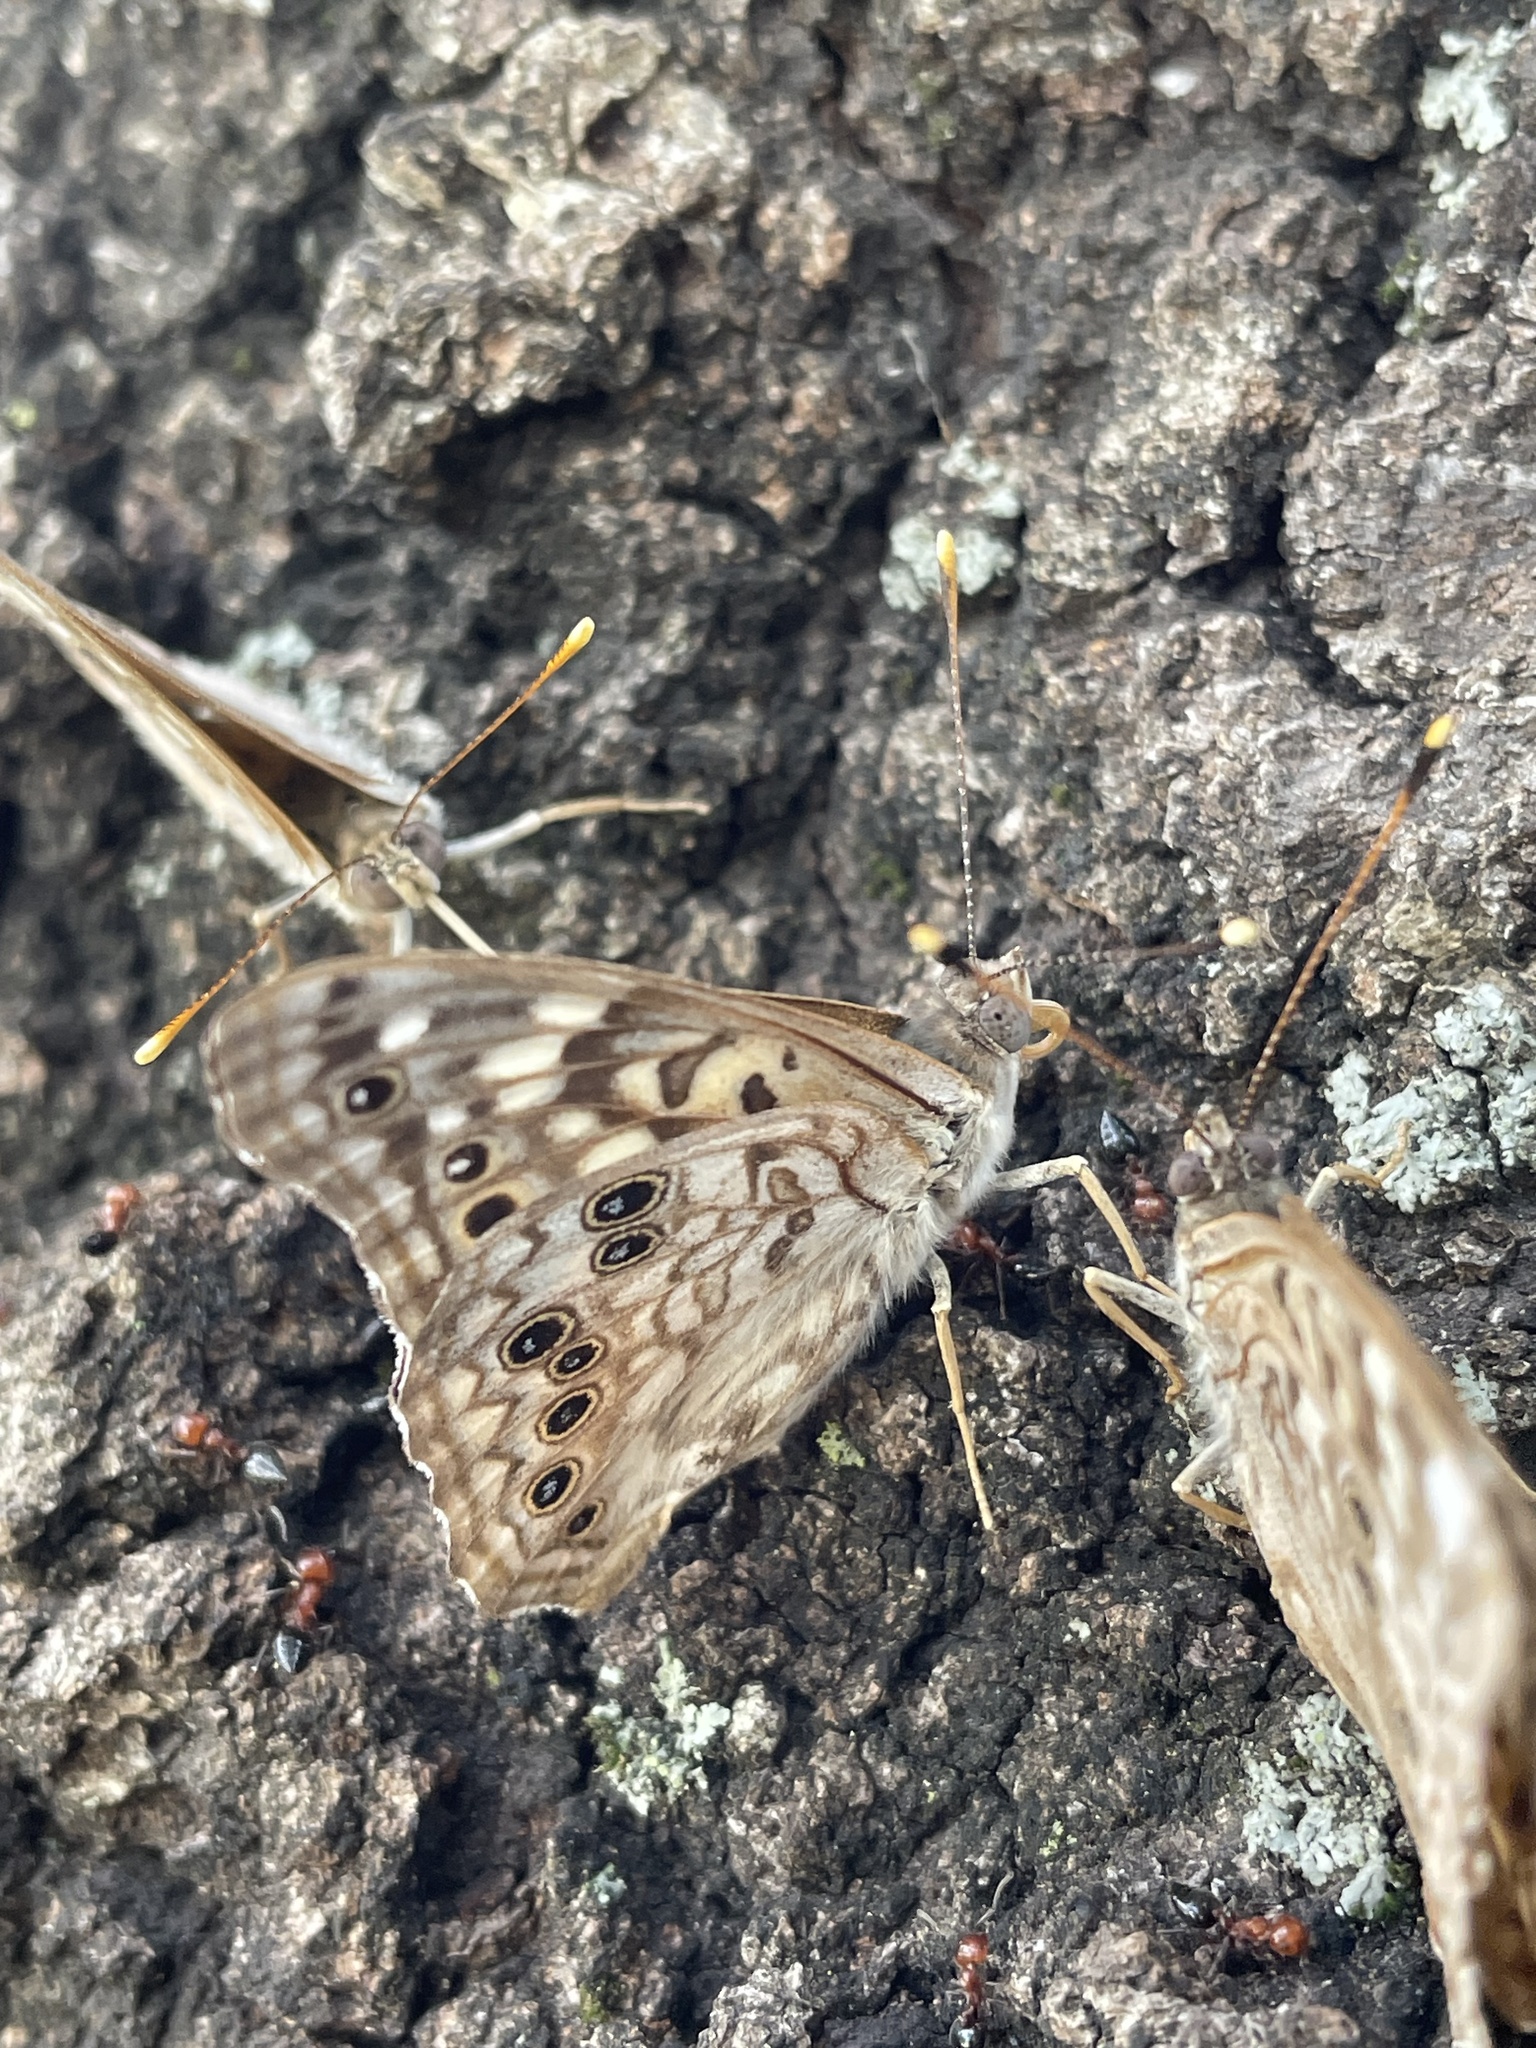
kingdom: Animalia
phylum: Arthropoda
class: Insecta
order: Lepidoptera
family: Nymphalidae
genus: Asterocampa
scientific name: Asterocampa celtis
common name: Hackberry emperor
